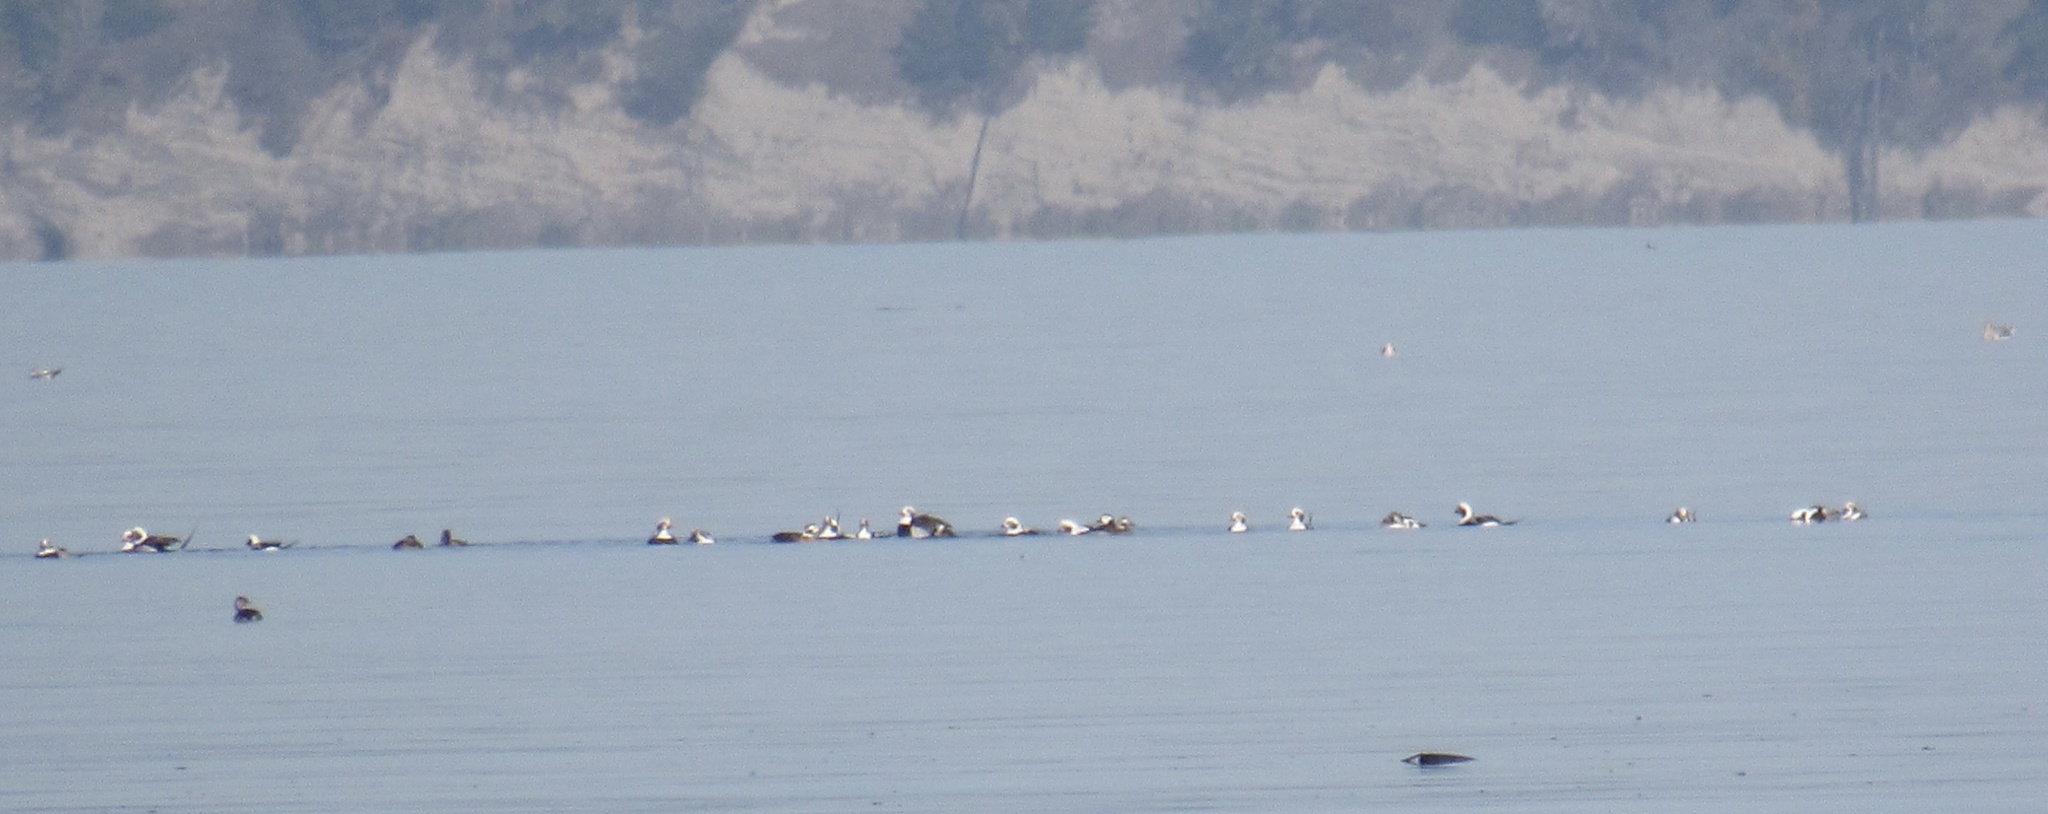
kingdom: Animalia
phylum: Chordata
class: Aves
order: Anseriformes
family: Anatidae
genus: Clangula
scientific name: Clangula hyemalis
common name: Long-tailed duck
